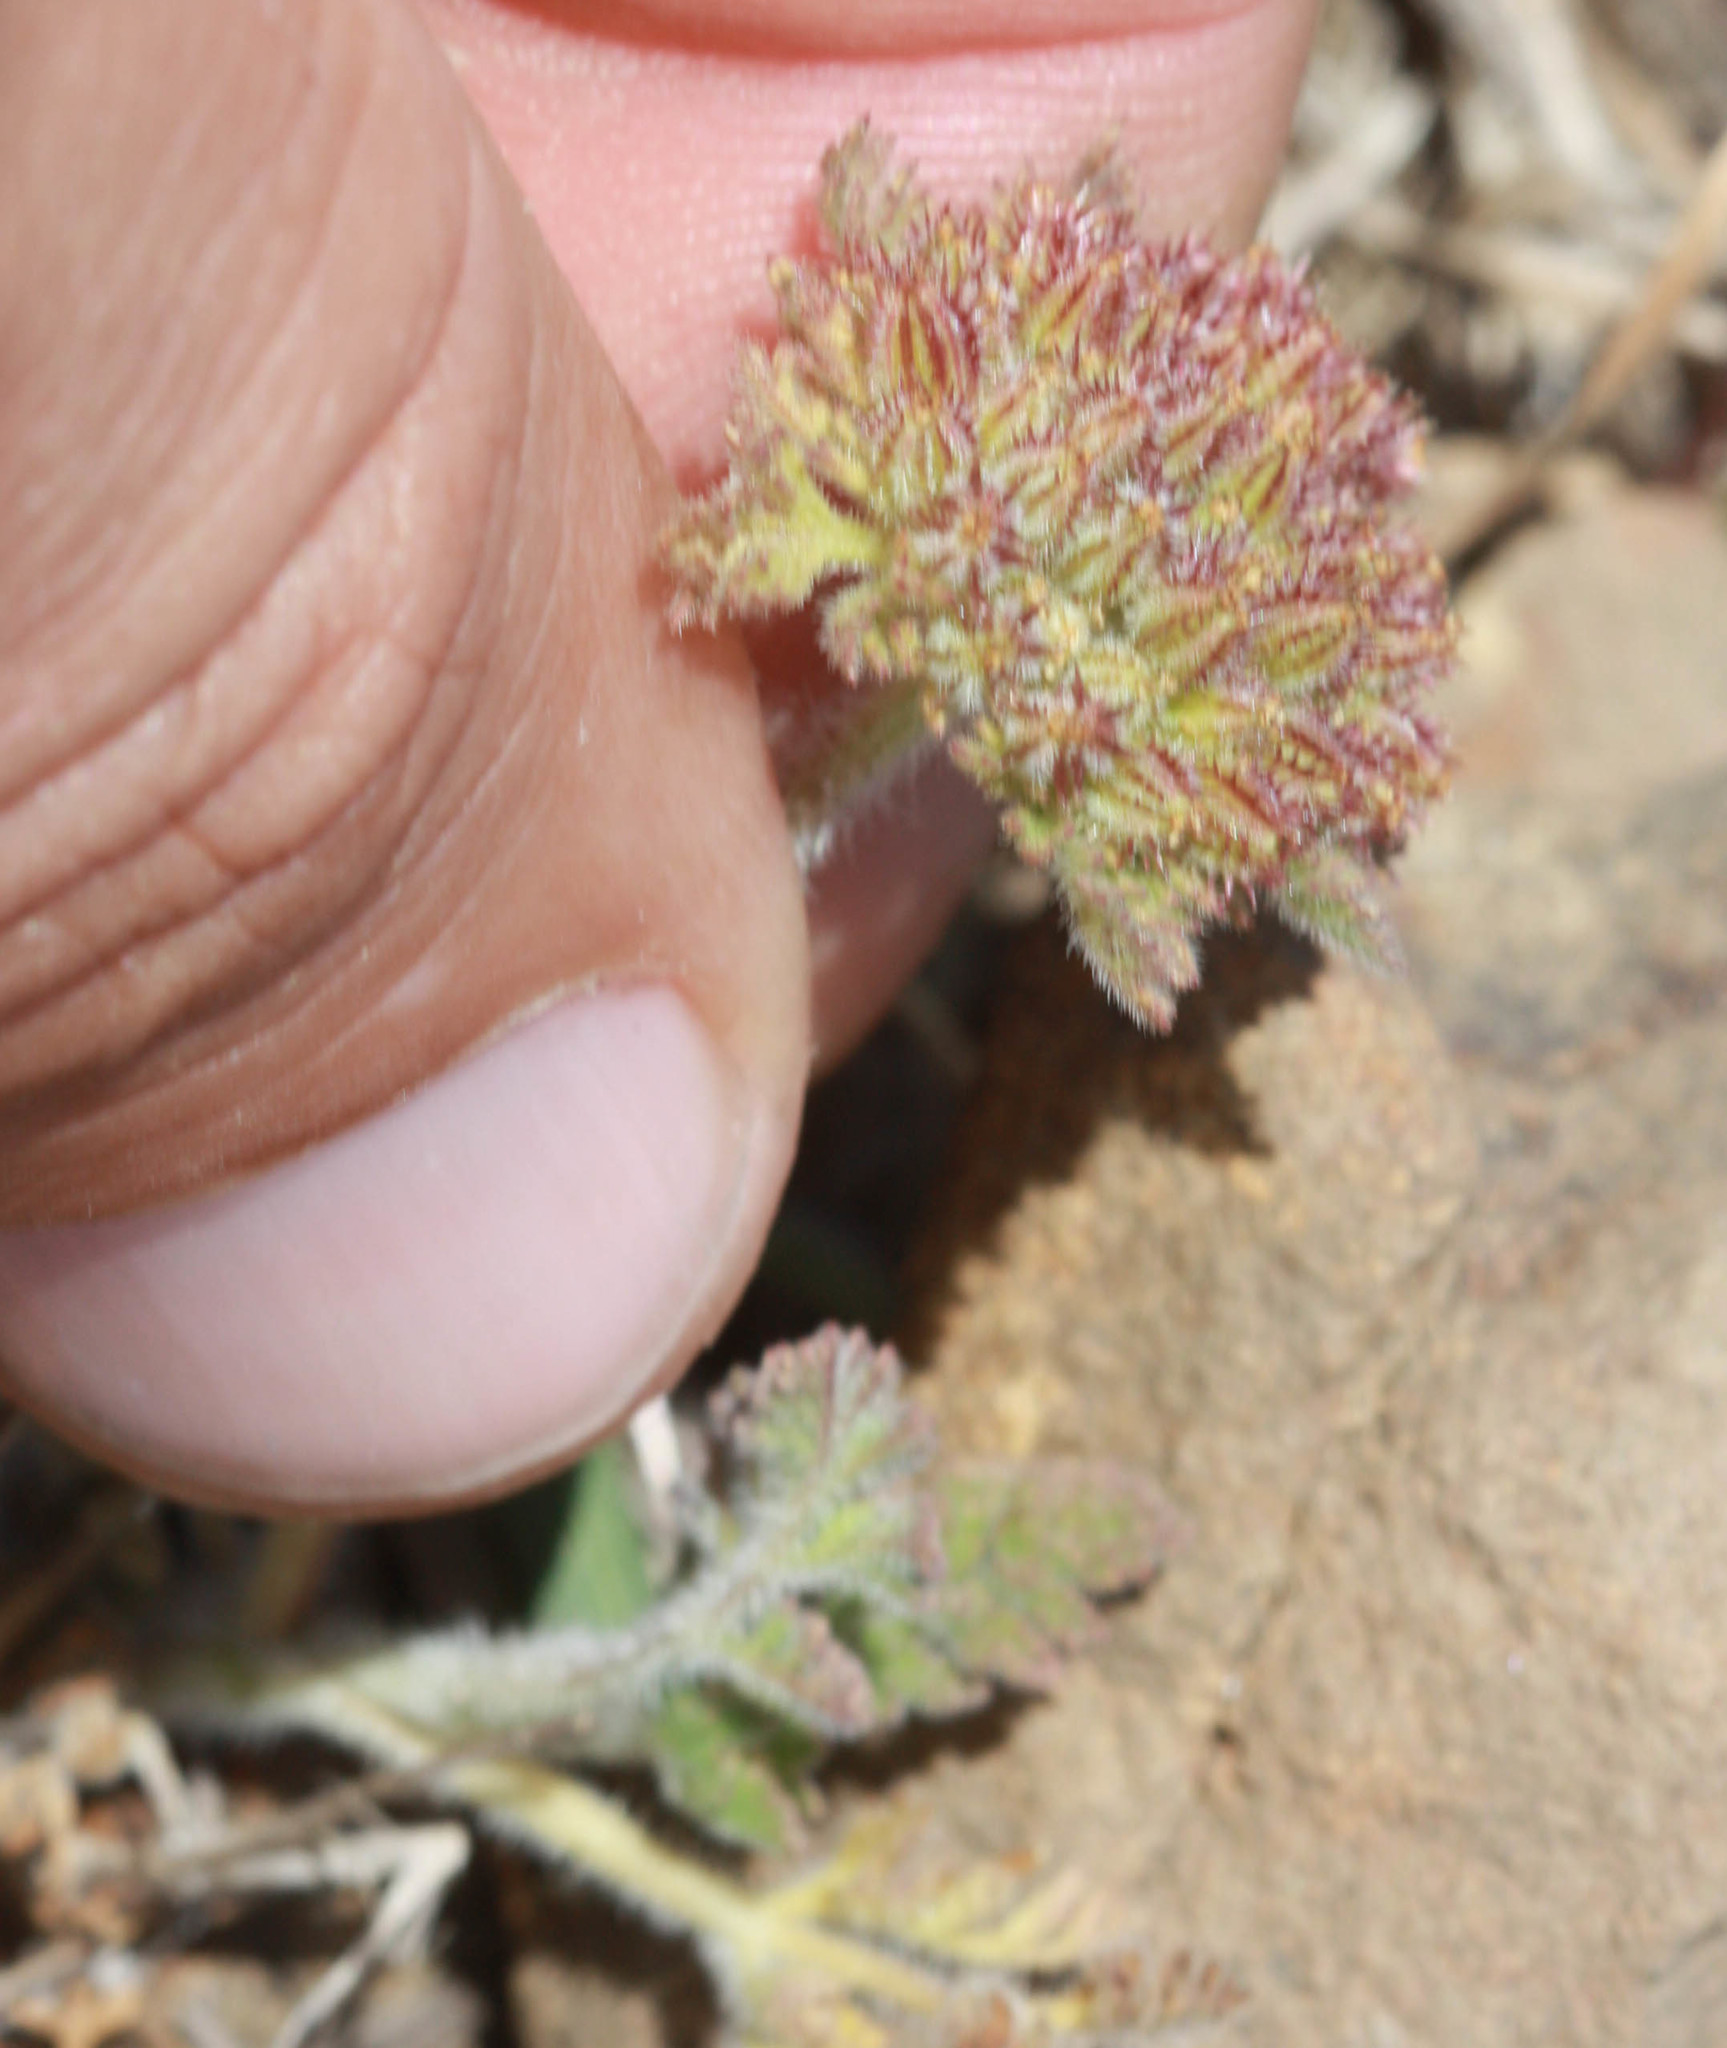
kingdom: Plantae
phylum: Tracheophyta
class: Magnoliopsida
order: Apiales
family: Apiaceae
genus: Daucus
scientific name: Daucus pusillus
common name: Southwest wild carrot
